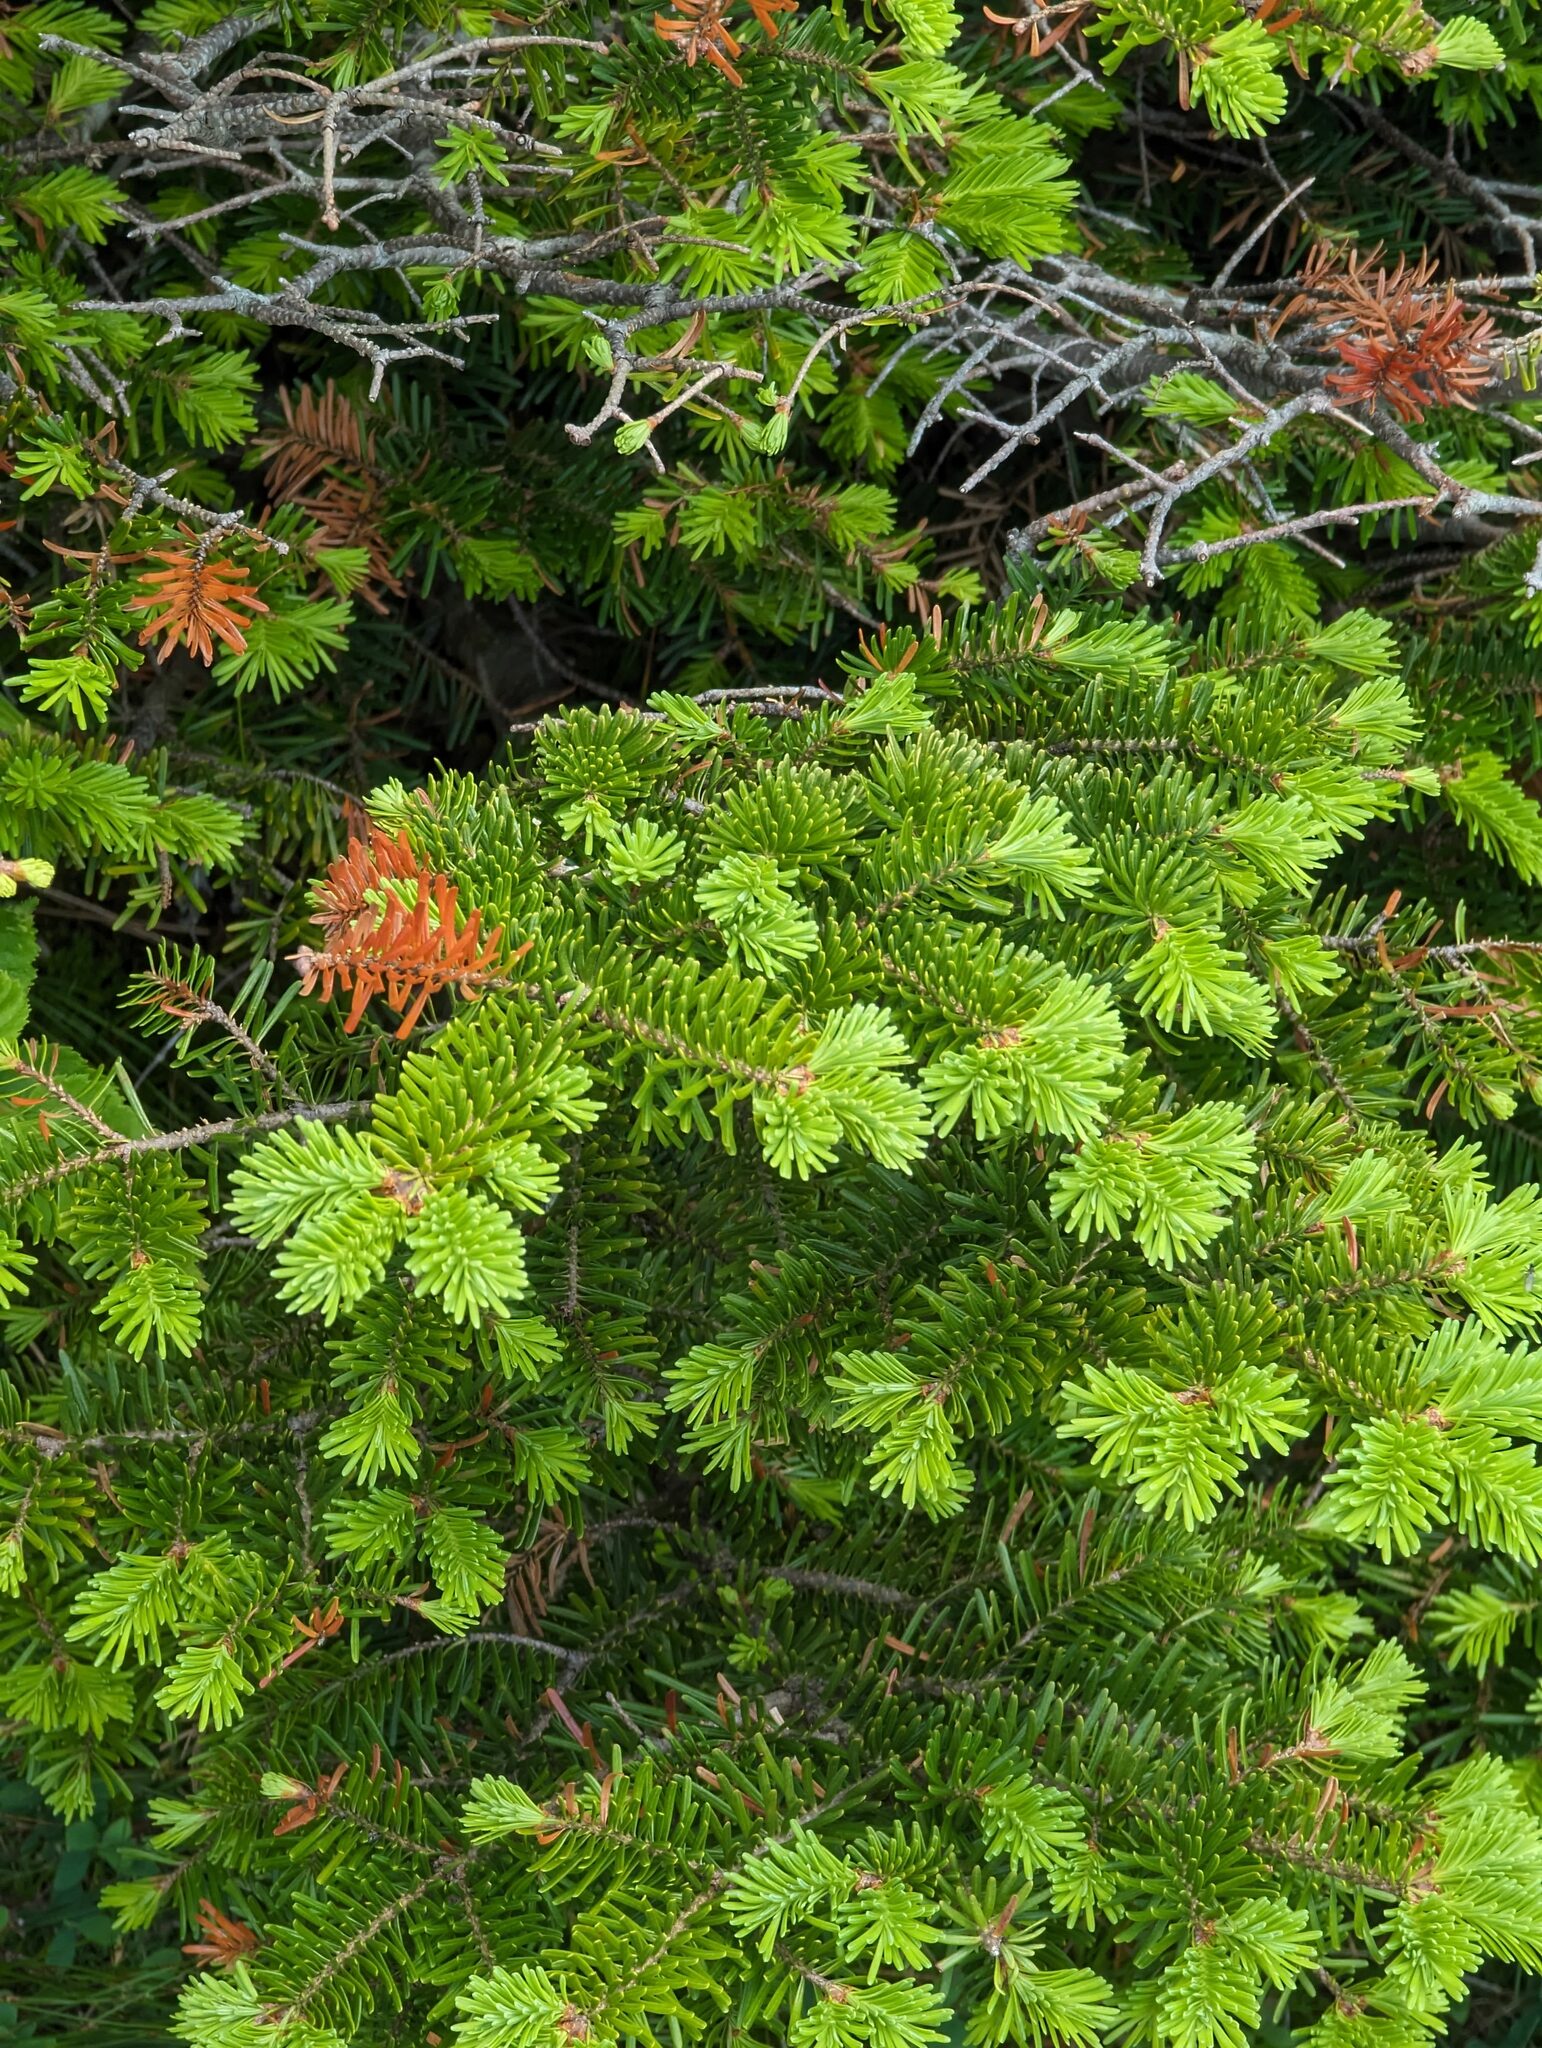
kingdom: Plantae
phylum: Tracheophyta
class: Pinopsida
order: Pinales
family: Pinaceae
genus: Abies
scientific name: Abies balsamea
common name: Balsam fir
